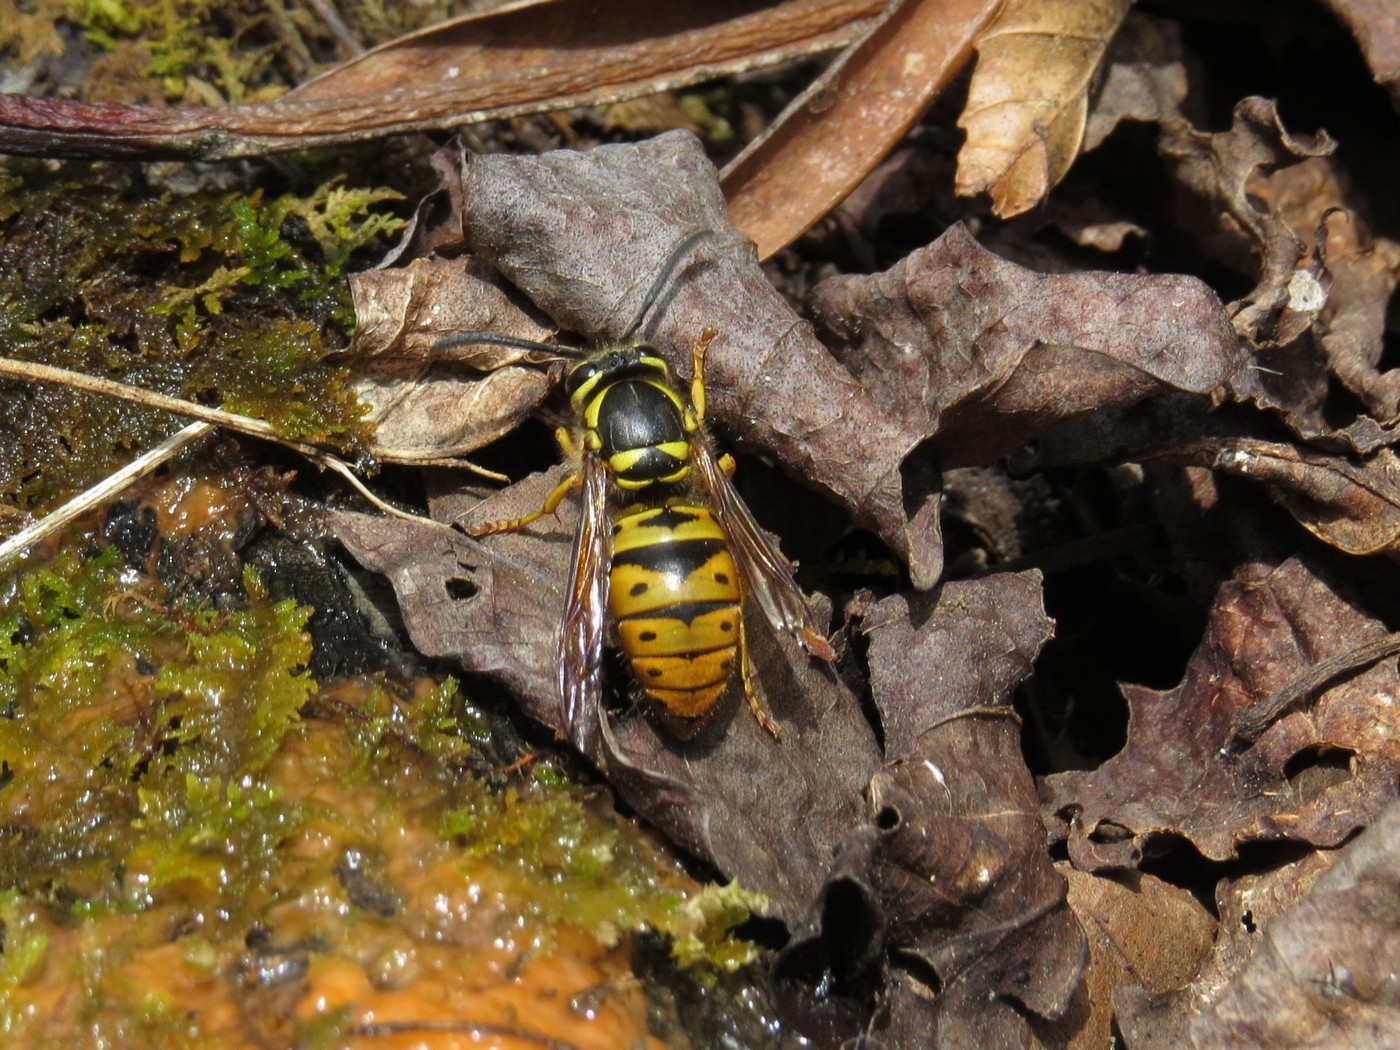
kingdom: Animalia
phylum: Arthropoda
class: Insecta
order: Hymenoptera
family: Vespidae
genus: Vespula
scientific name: Vespula maculifrons
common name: Eastern yellowjacket
